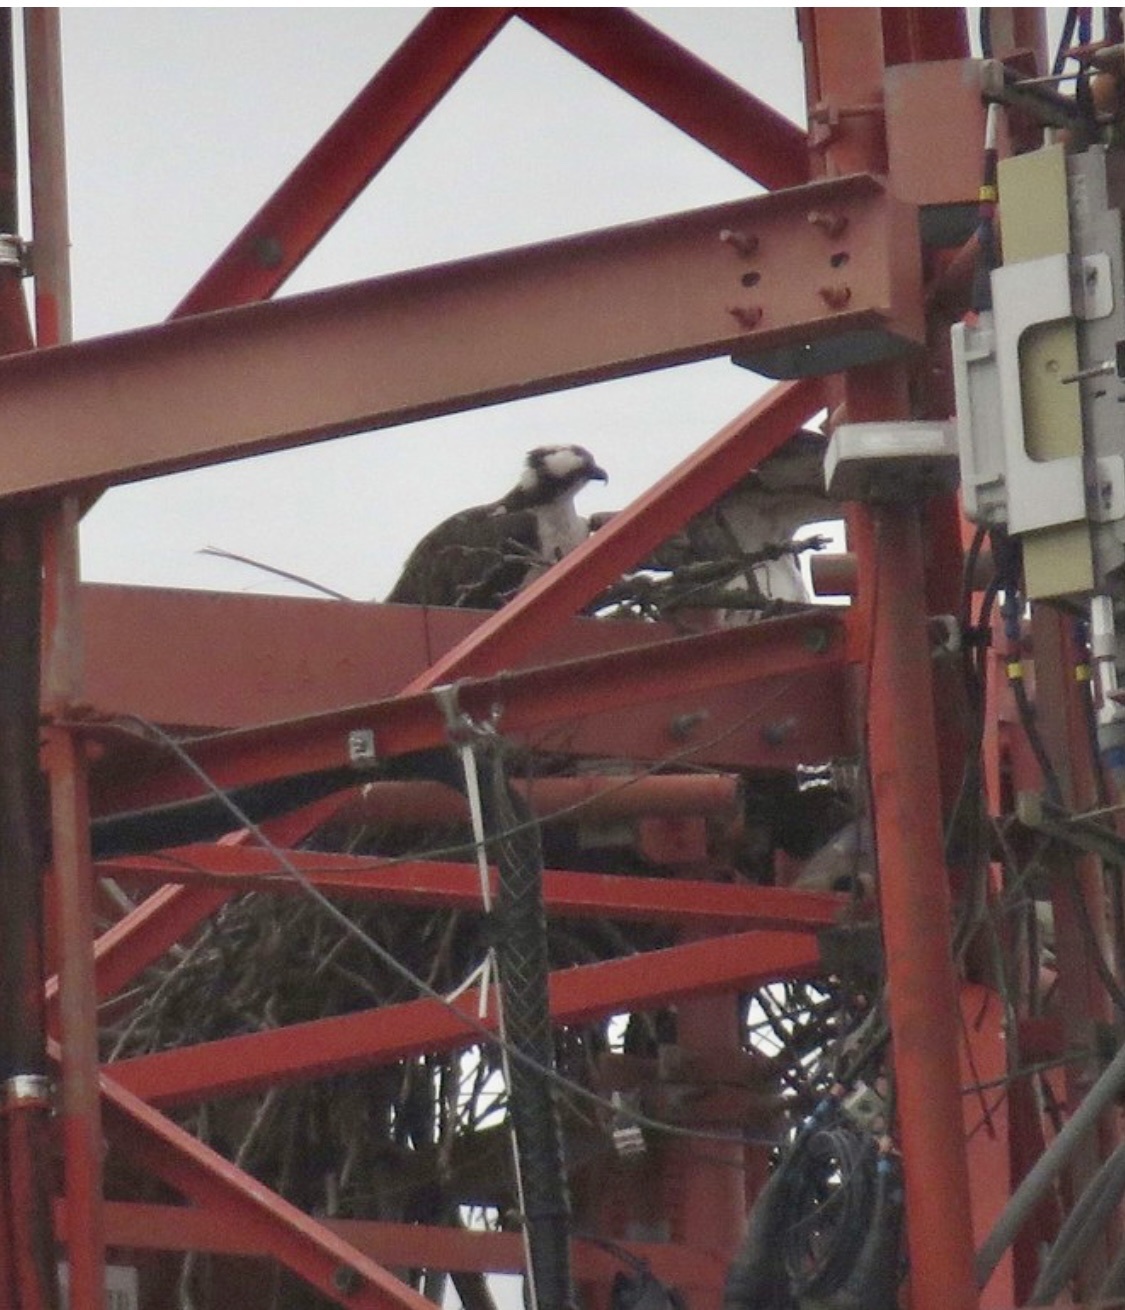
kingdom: Animalia
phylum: Chordata
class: Aves
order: Accipitriformes
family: Pandionidae
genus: Pandion
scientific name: Pandion haliaetus
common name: Osprey
